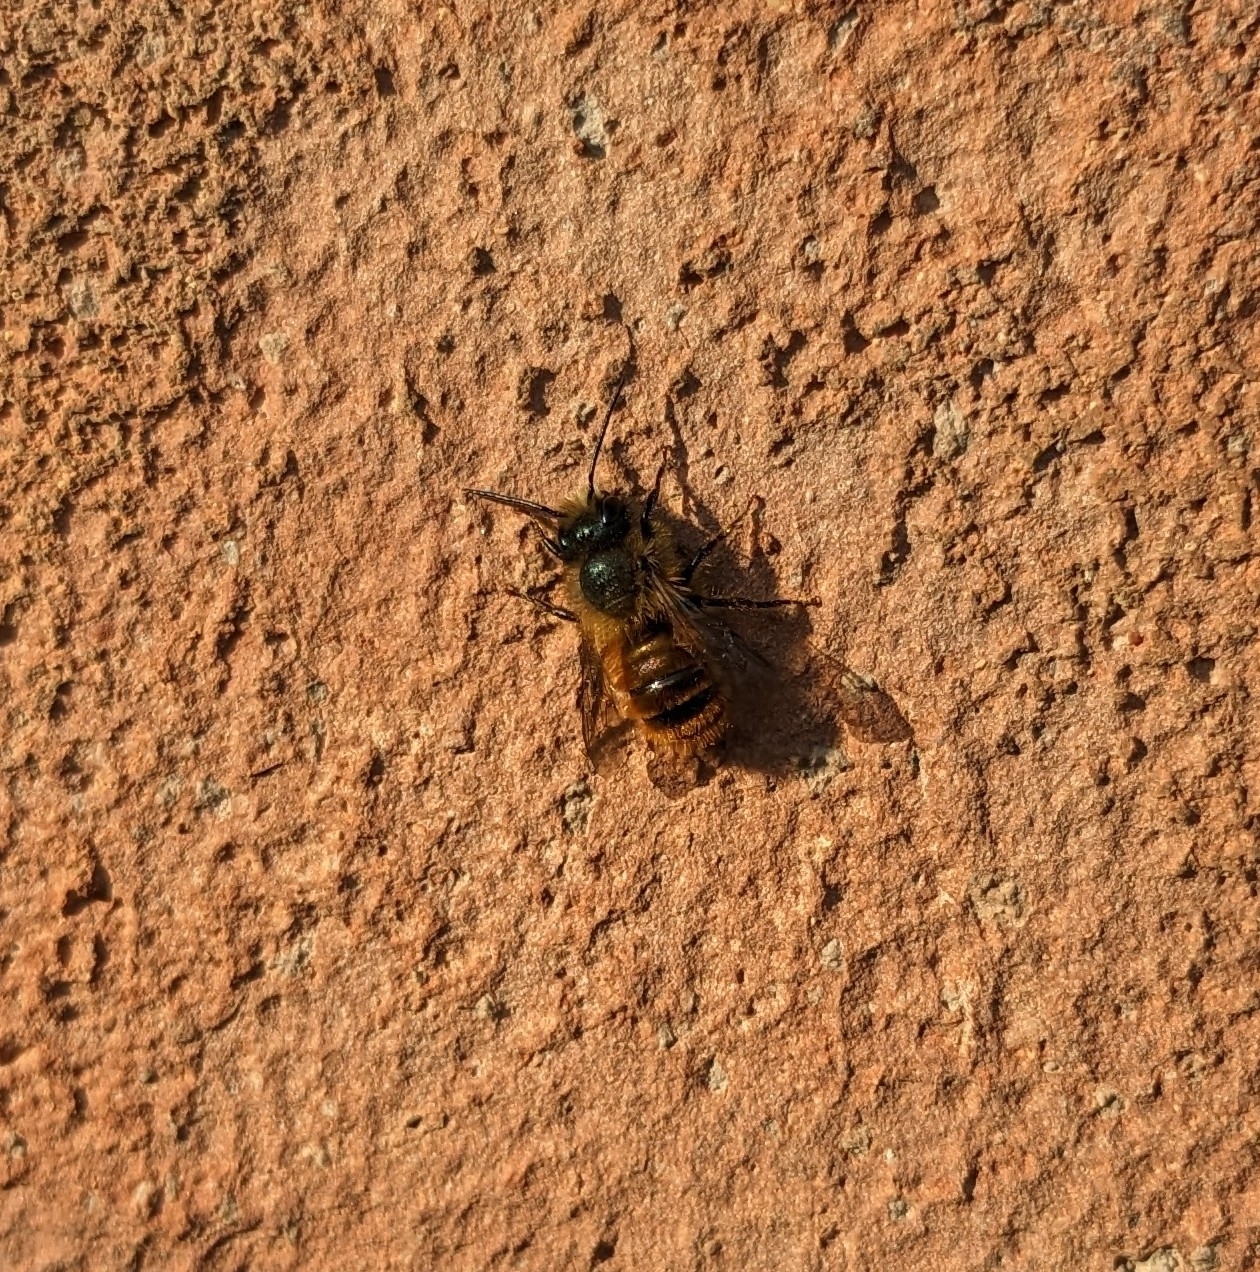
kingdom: Animalia
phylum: Arthropoda
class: Insecta
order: Hymenoptera
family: Megachilidae
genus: Osmia
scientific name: Osmia bicornis
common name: Red mason bee
